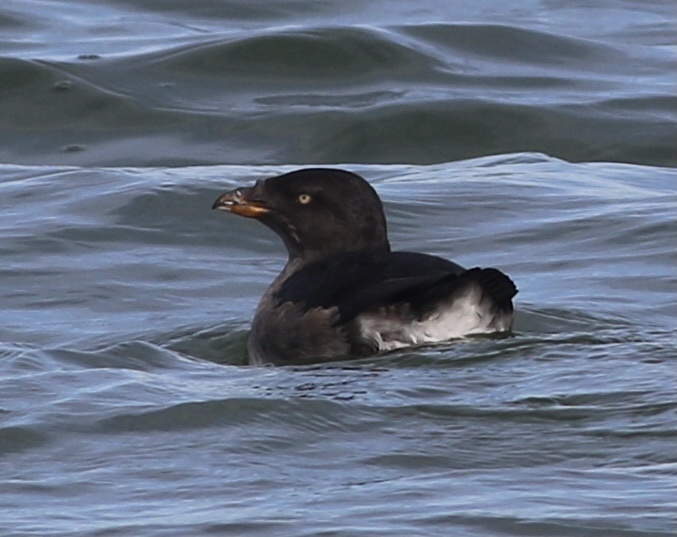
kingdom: Animalia
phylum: Chordata
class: Aves
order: Charadriiformes
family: Alcidae
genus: Cerorhinca
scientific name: Cerorhinca monocerata
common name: Rhinoceros auklet
